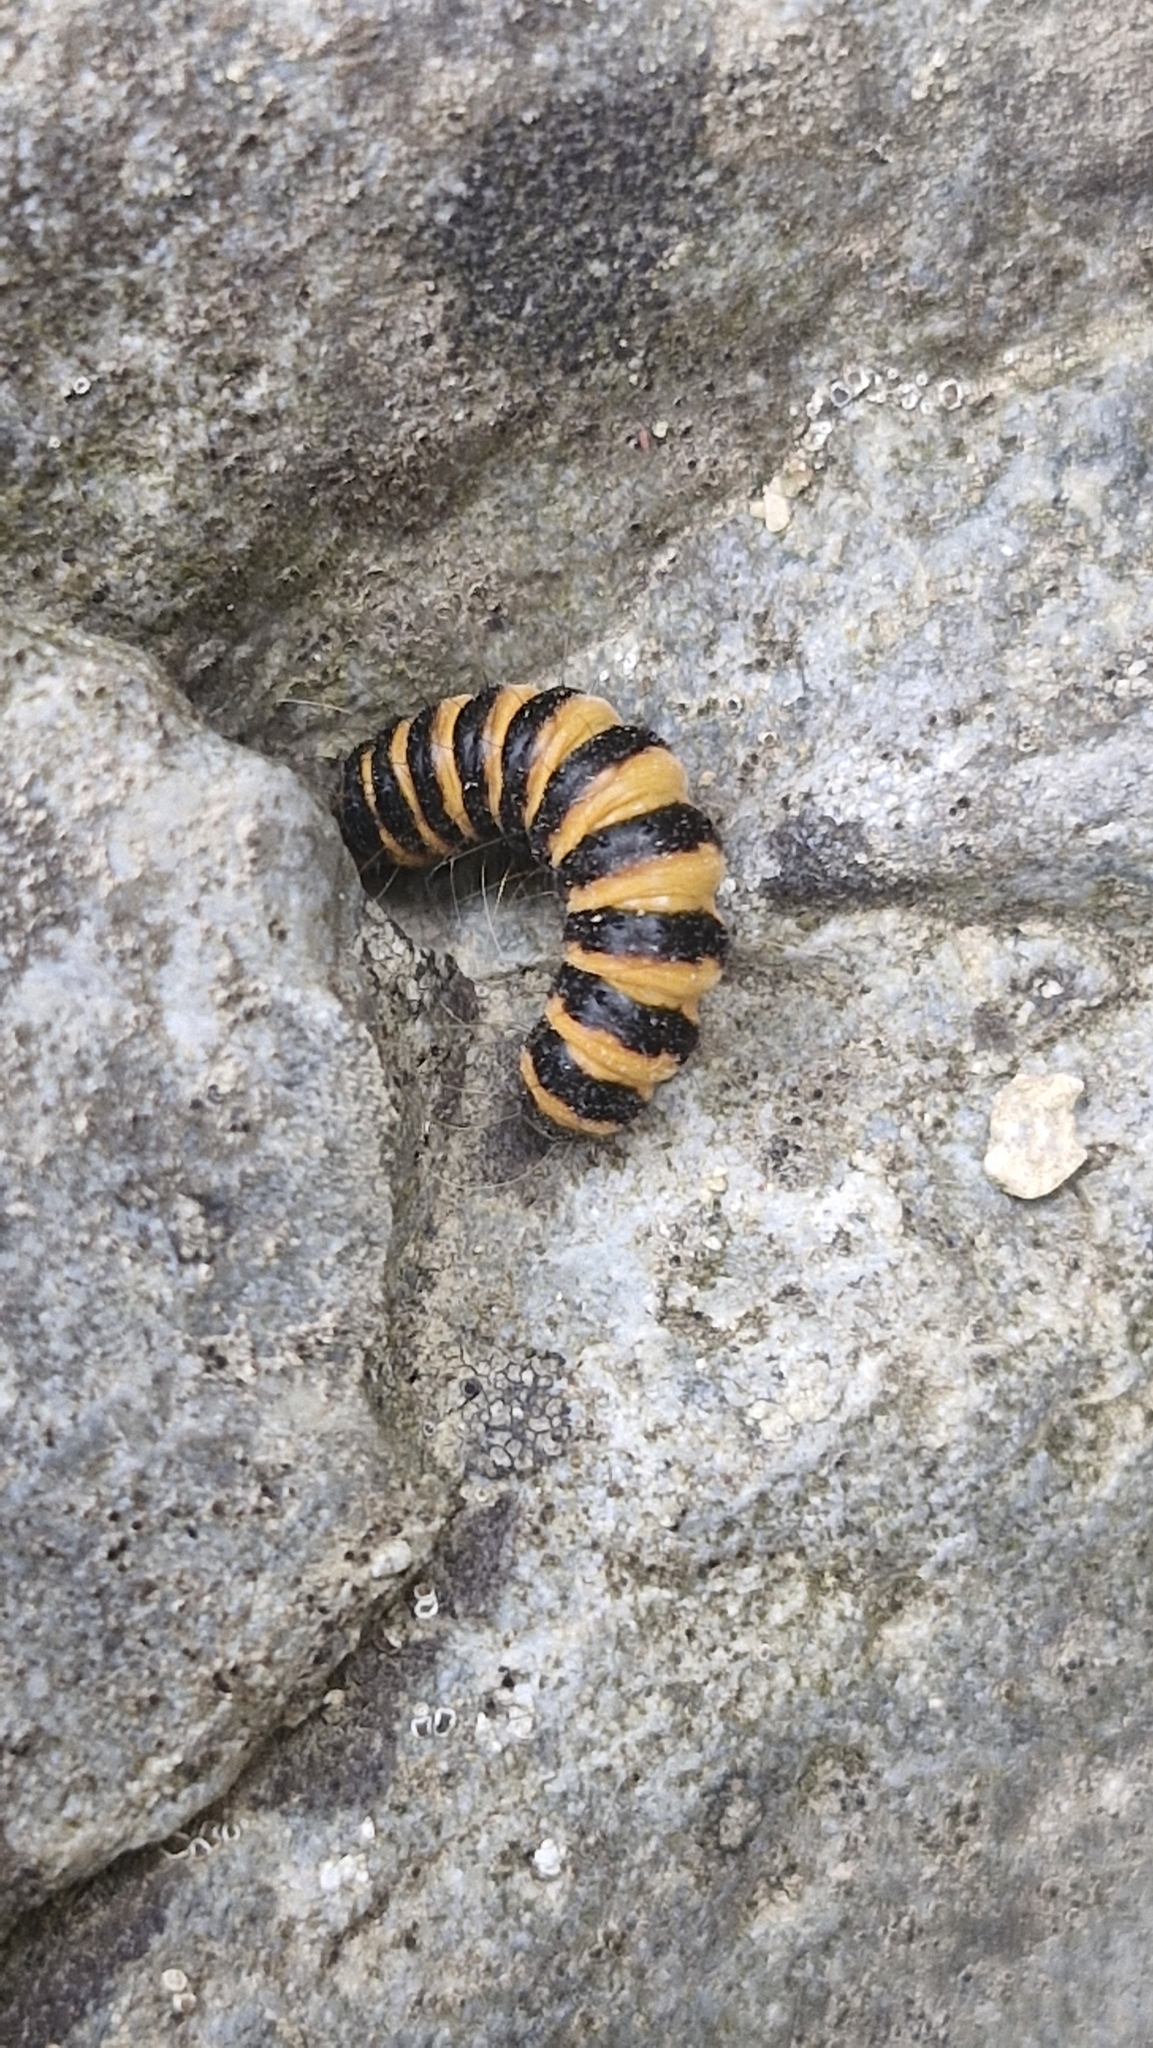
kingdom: Animalia
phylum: Arthropoda
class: Insecta
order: Lepidoptera
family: Erebidae
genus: Tyria
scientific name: Tyria jacobaeae
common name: Cinnabar
